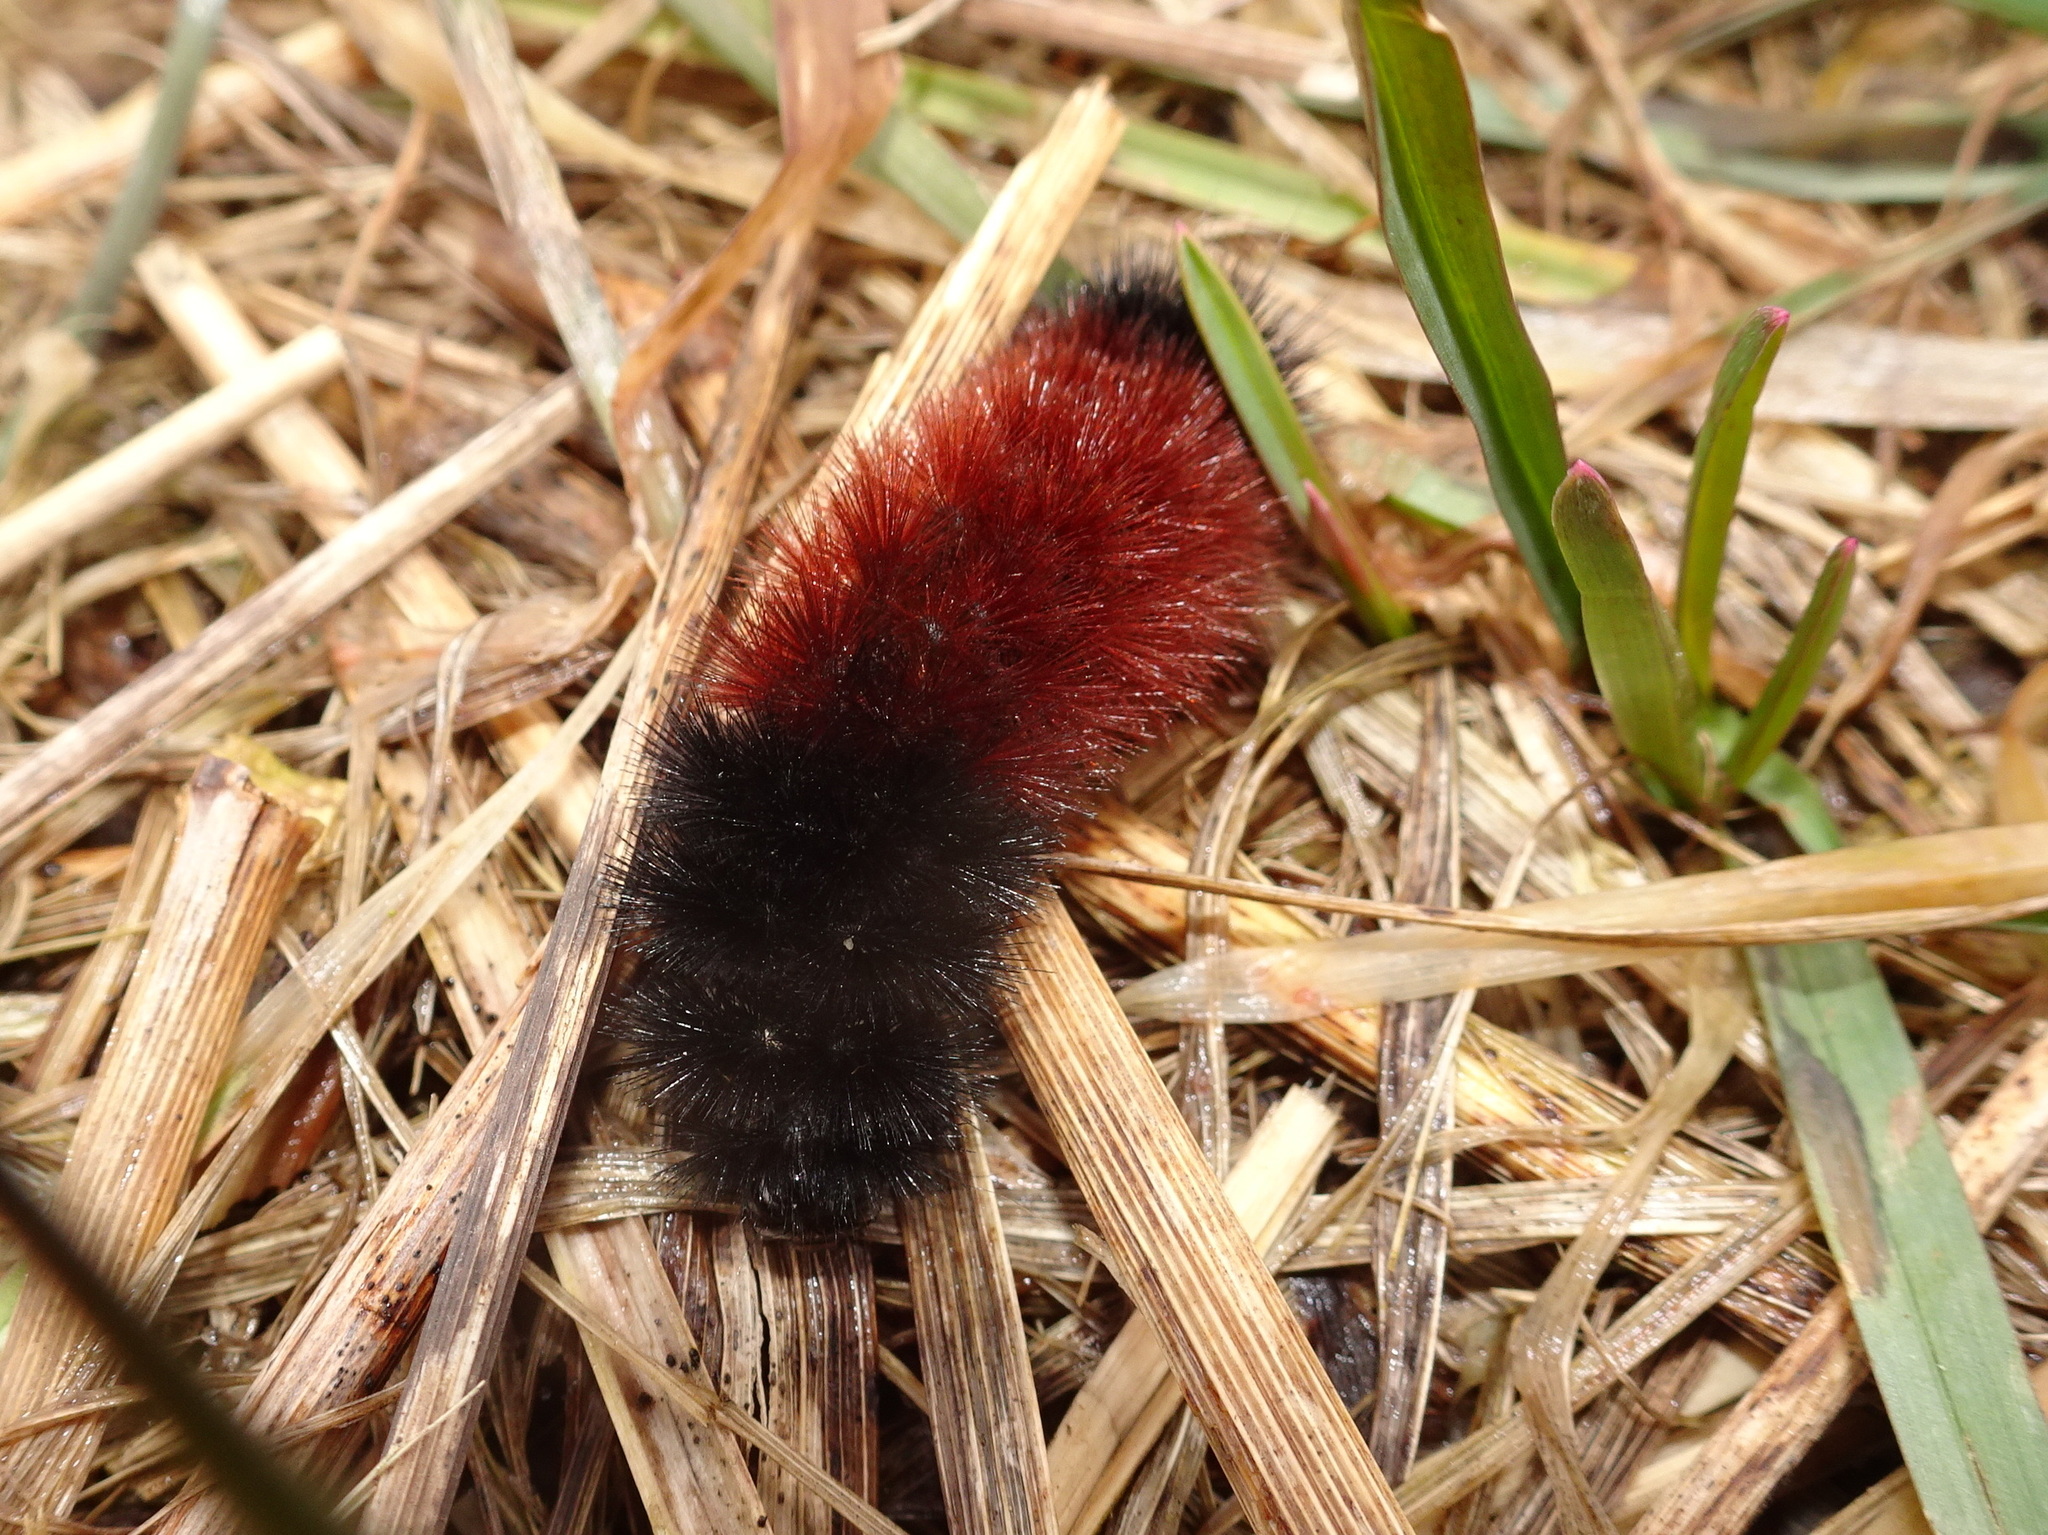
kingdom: Animalia
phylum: Arthropoda
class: Insecta
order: Lepidoptera
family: Erebidae
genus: Pyrrharctia
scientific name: Pyrrharctia isabella
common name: Isabella tiger moth
